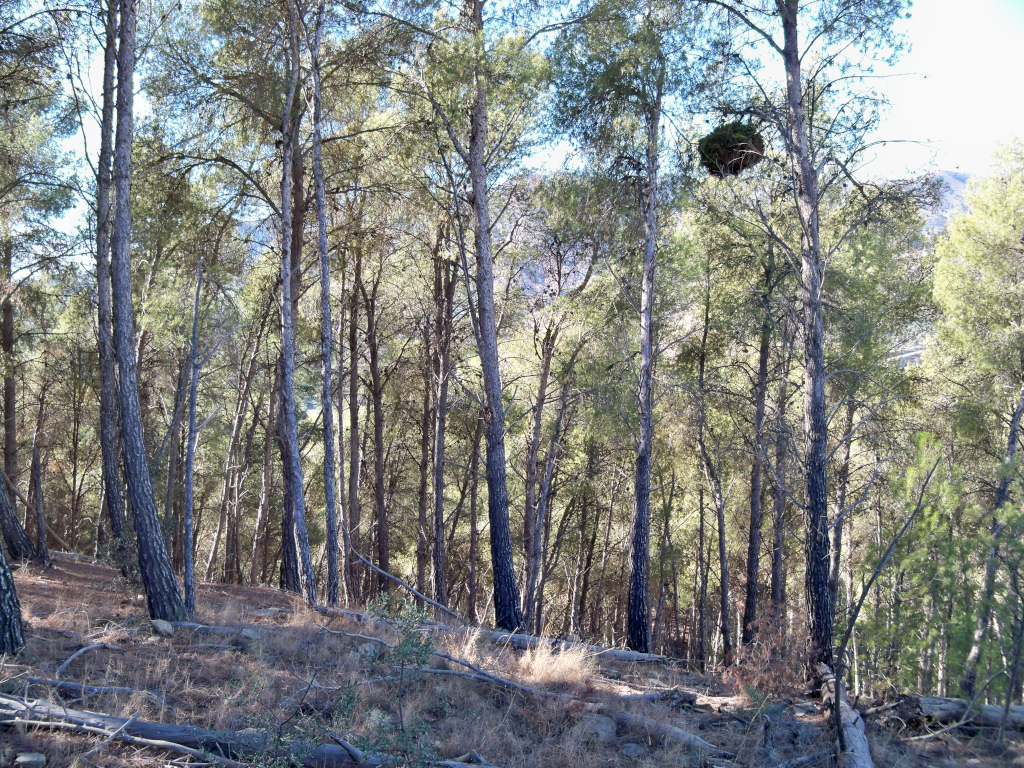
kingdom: Bacteria
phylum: Firmicutes
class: Bacilli
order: Acholeplasmatales
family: Acholeplasmataceae
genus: Phytoplasma
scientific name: Phytoplasma pini
